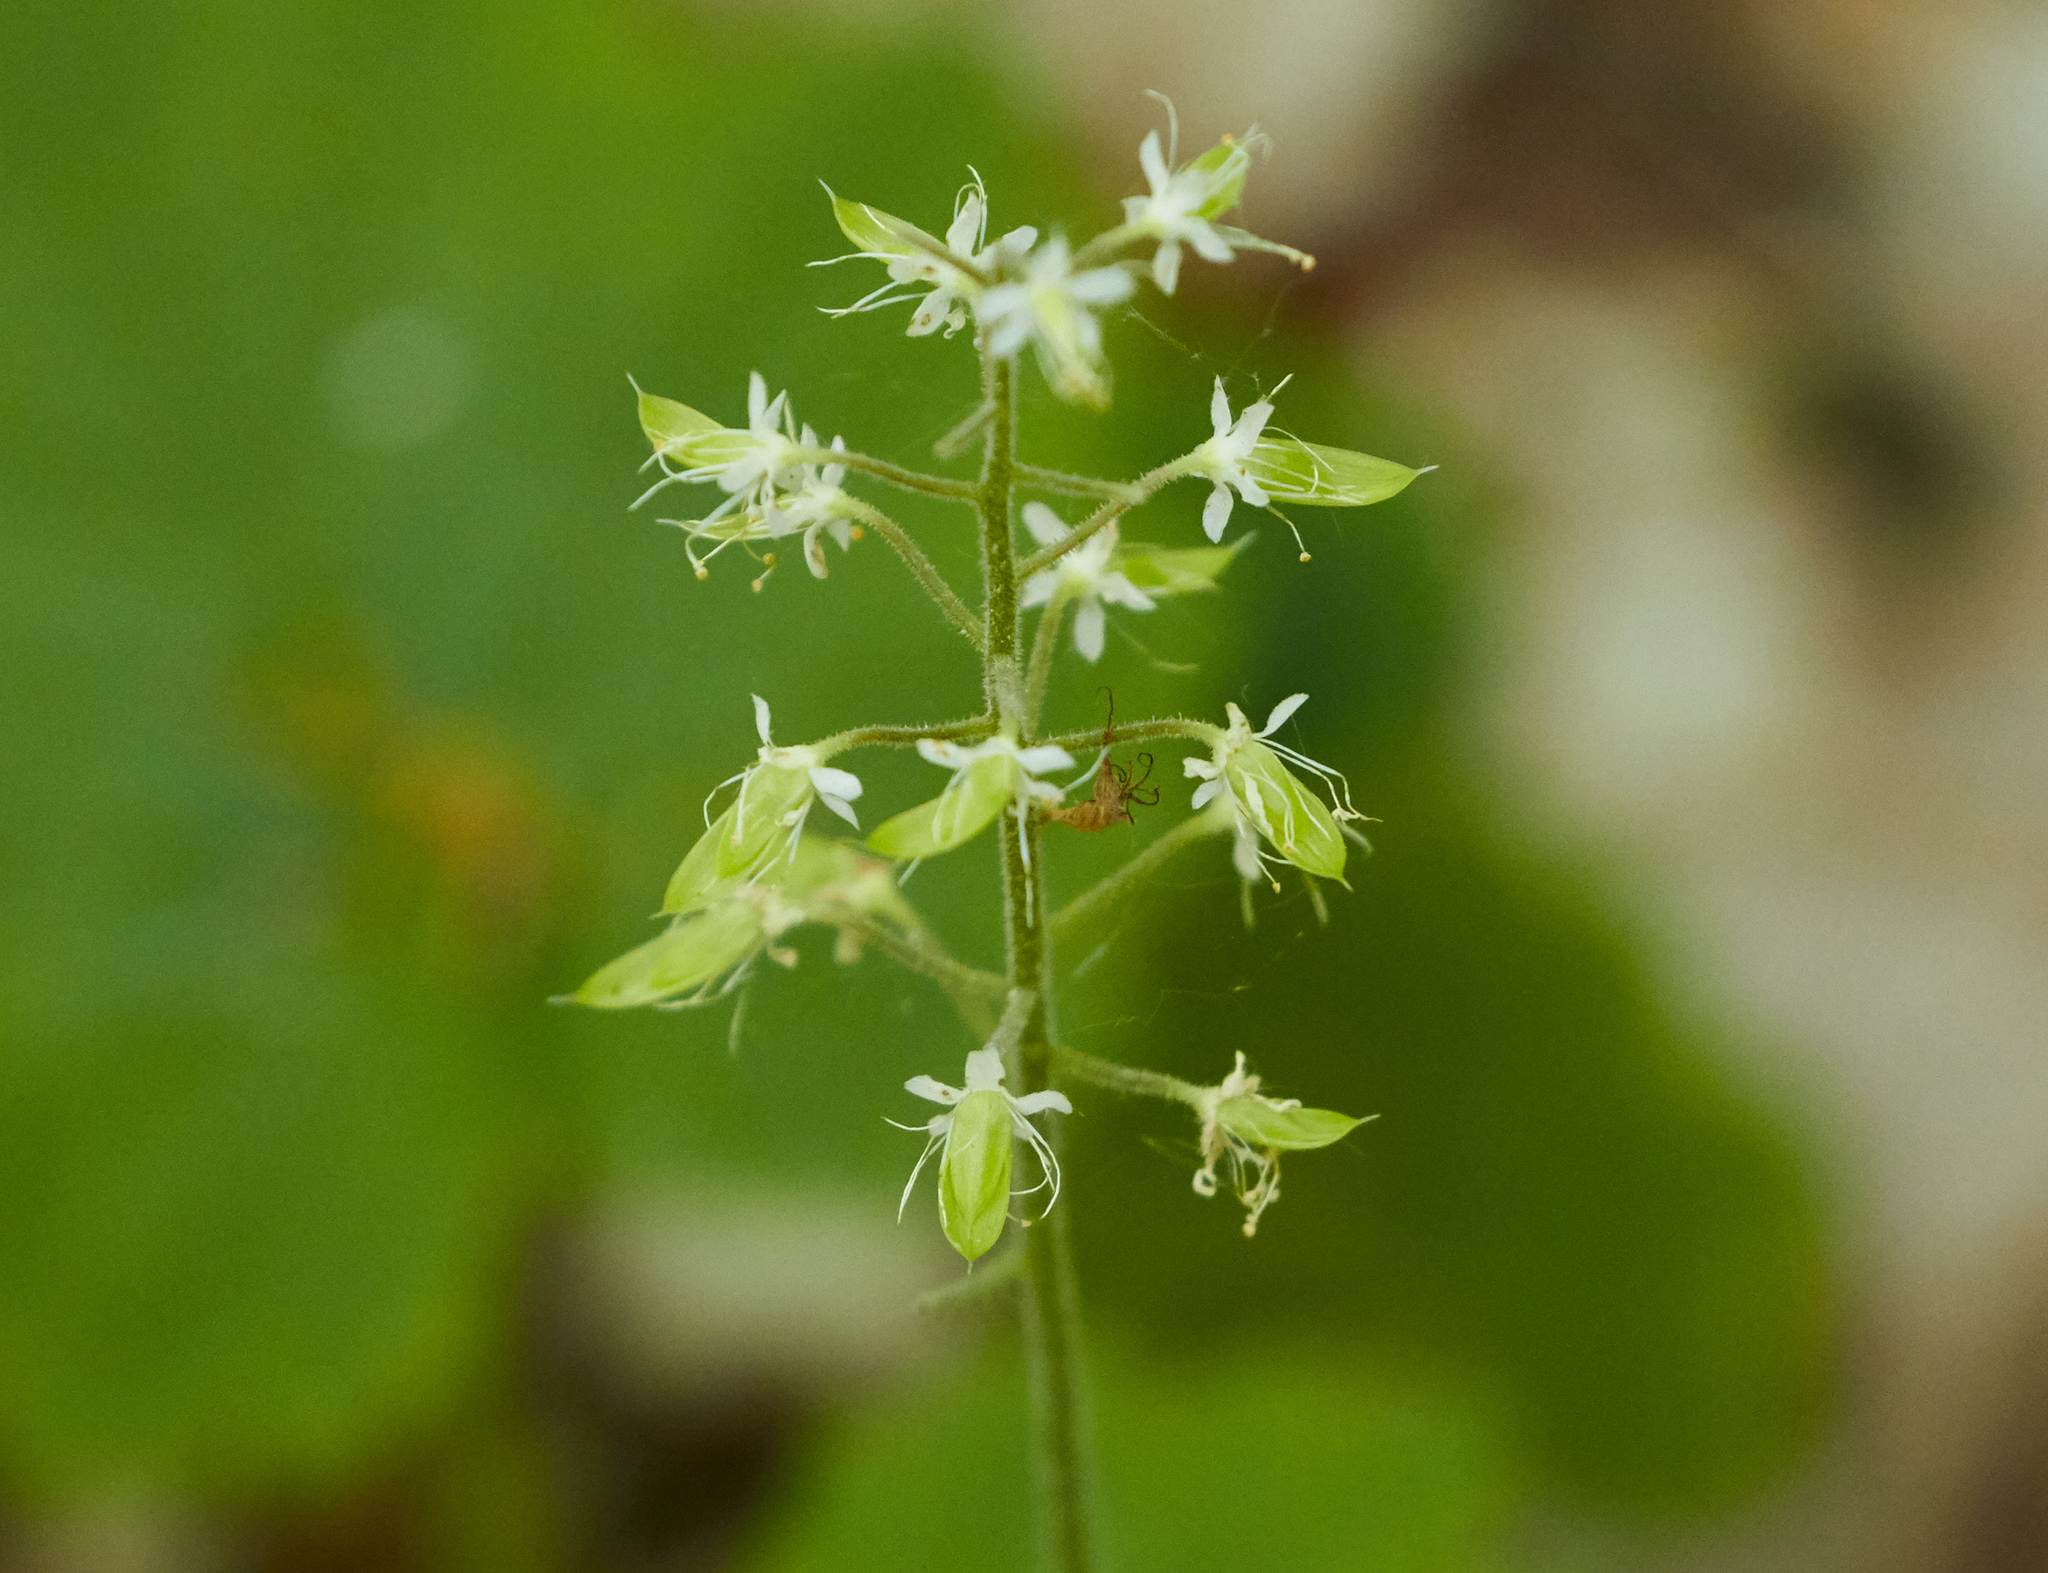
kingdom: Plantae
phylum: Tracheophyta
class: Magnoliopsida
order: Saxifragales
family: Saxifragaceae
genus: Tiarella
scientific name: Tiarella stolonifera
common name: Stoloniferous foamflower
